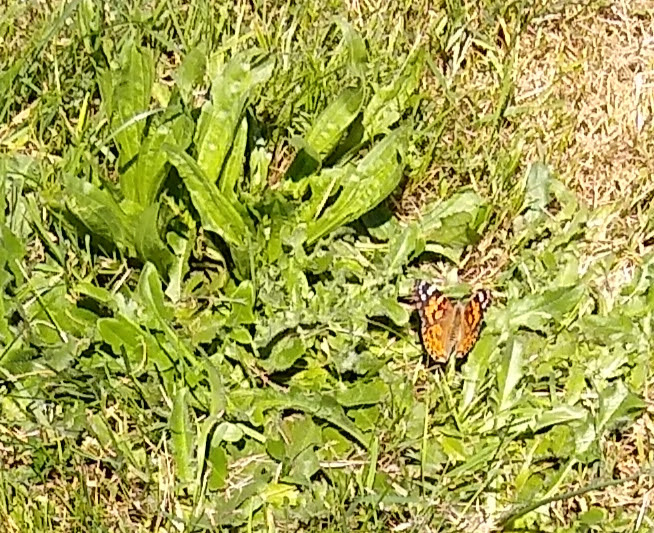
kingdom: Animalia
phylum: Arthropoda
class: Insecta
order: Lepidoptera
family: Nymphalidae
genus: Vanessa
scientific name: Vanessa cardui
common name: Painted lady
